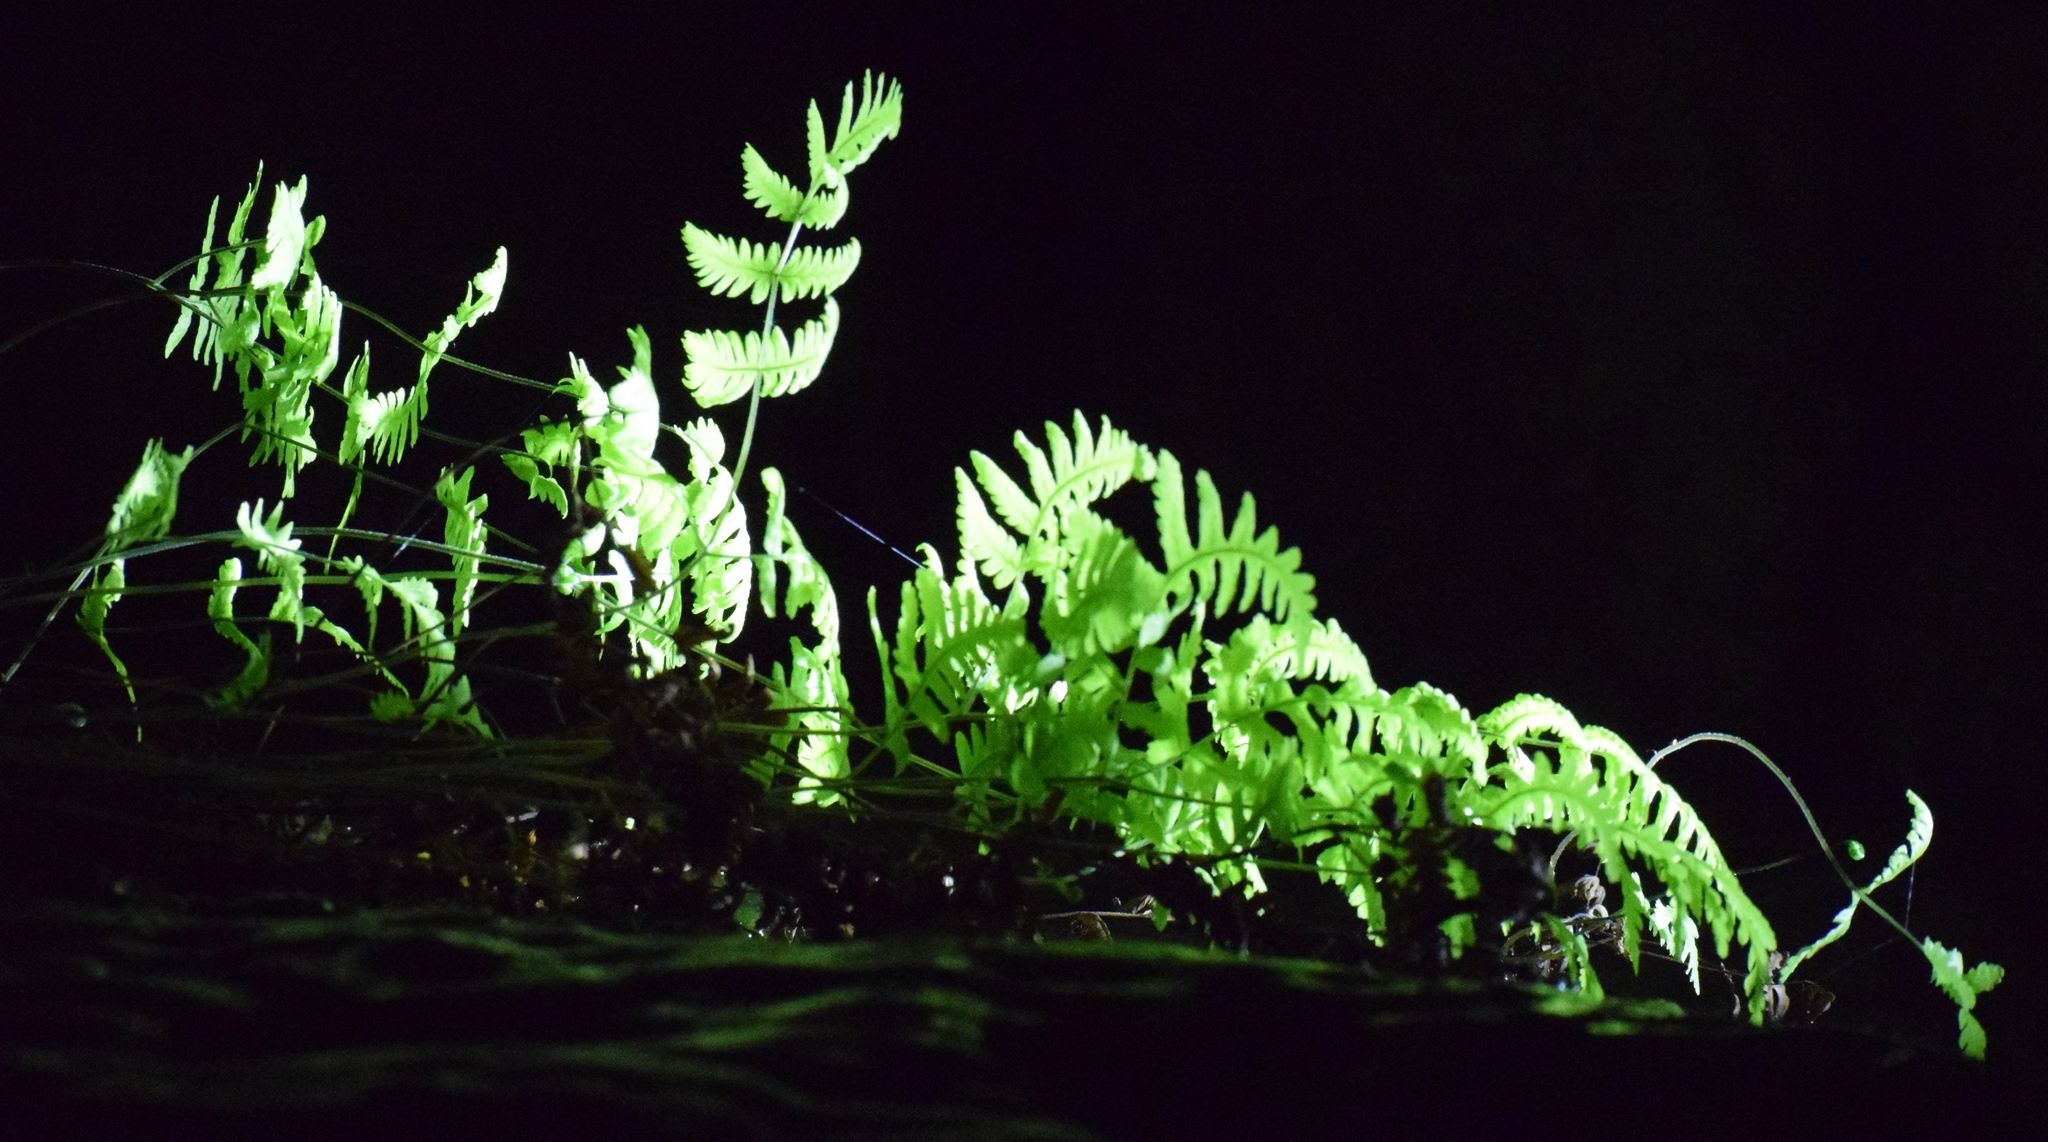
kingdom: Plantae
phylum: Tracheophyta
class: Polypodiopsida
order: Polypodiales
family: Thelypteridaceae
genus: Thelypteris
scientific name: Thelypteris palustris
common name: Marsh fern
